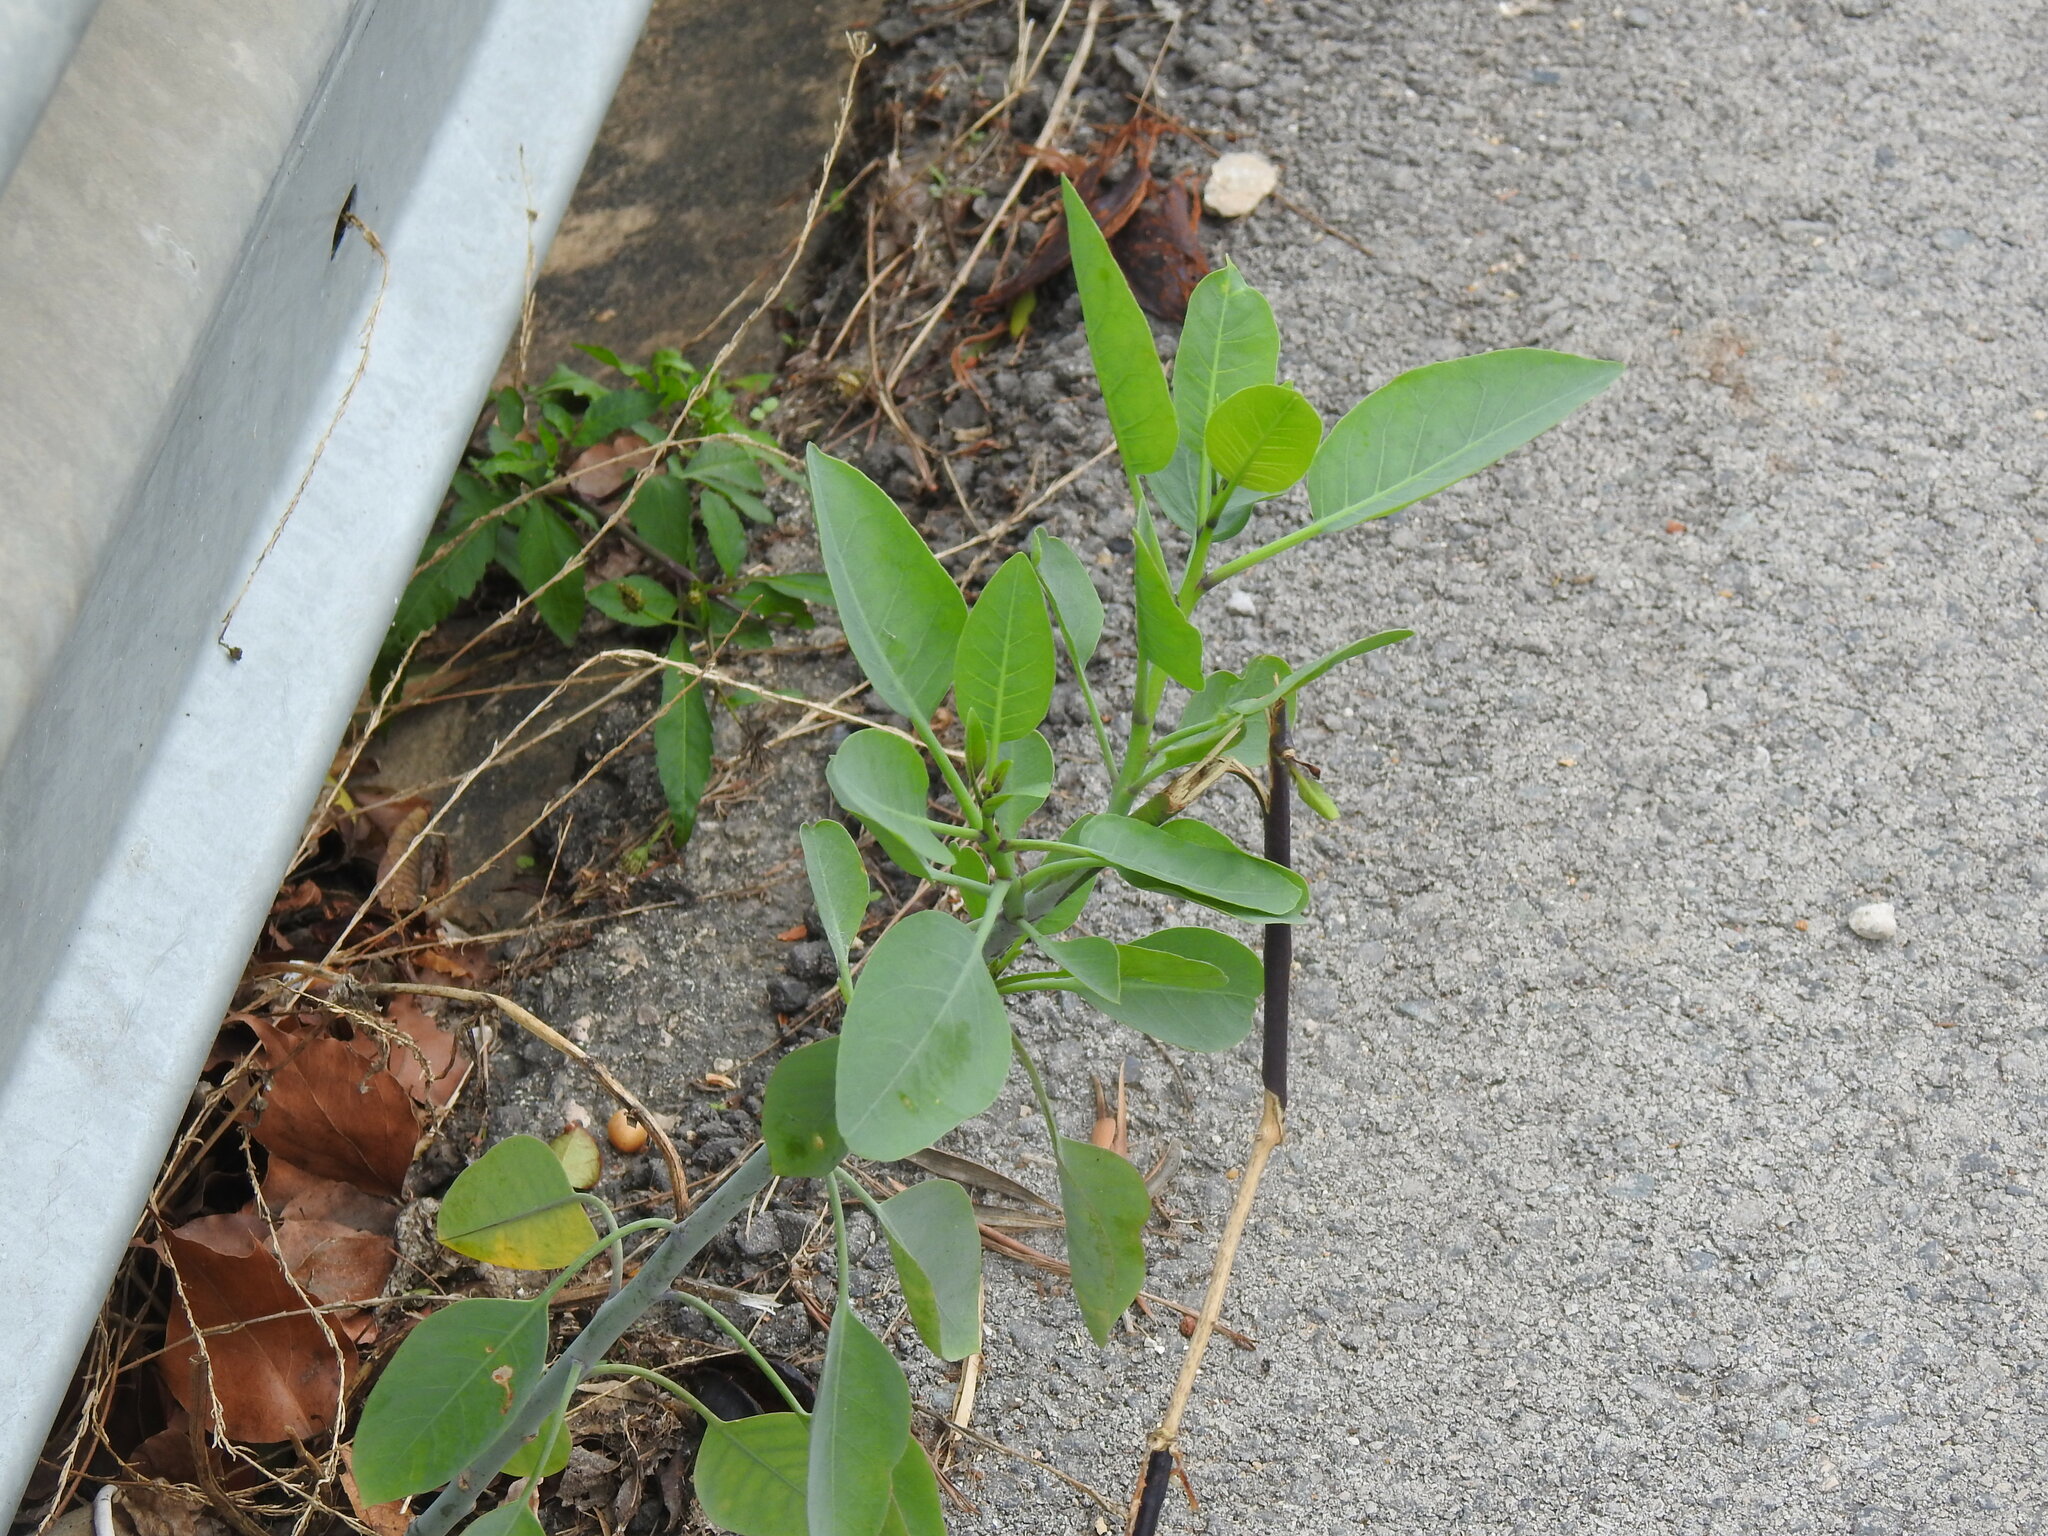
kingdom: Plantae
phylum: Tracheophyta
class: Magnoliopsida
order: Solanales
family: Solanaceae
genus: Nicotiana
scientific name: Nicotiana glauca
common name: Tree tobacco
